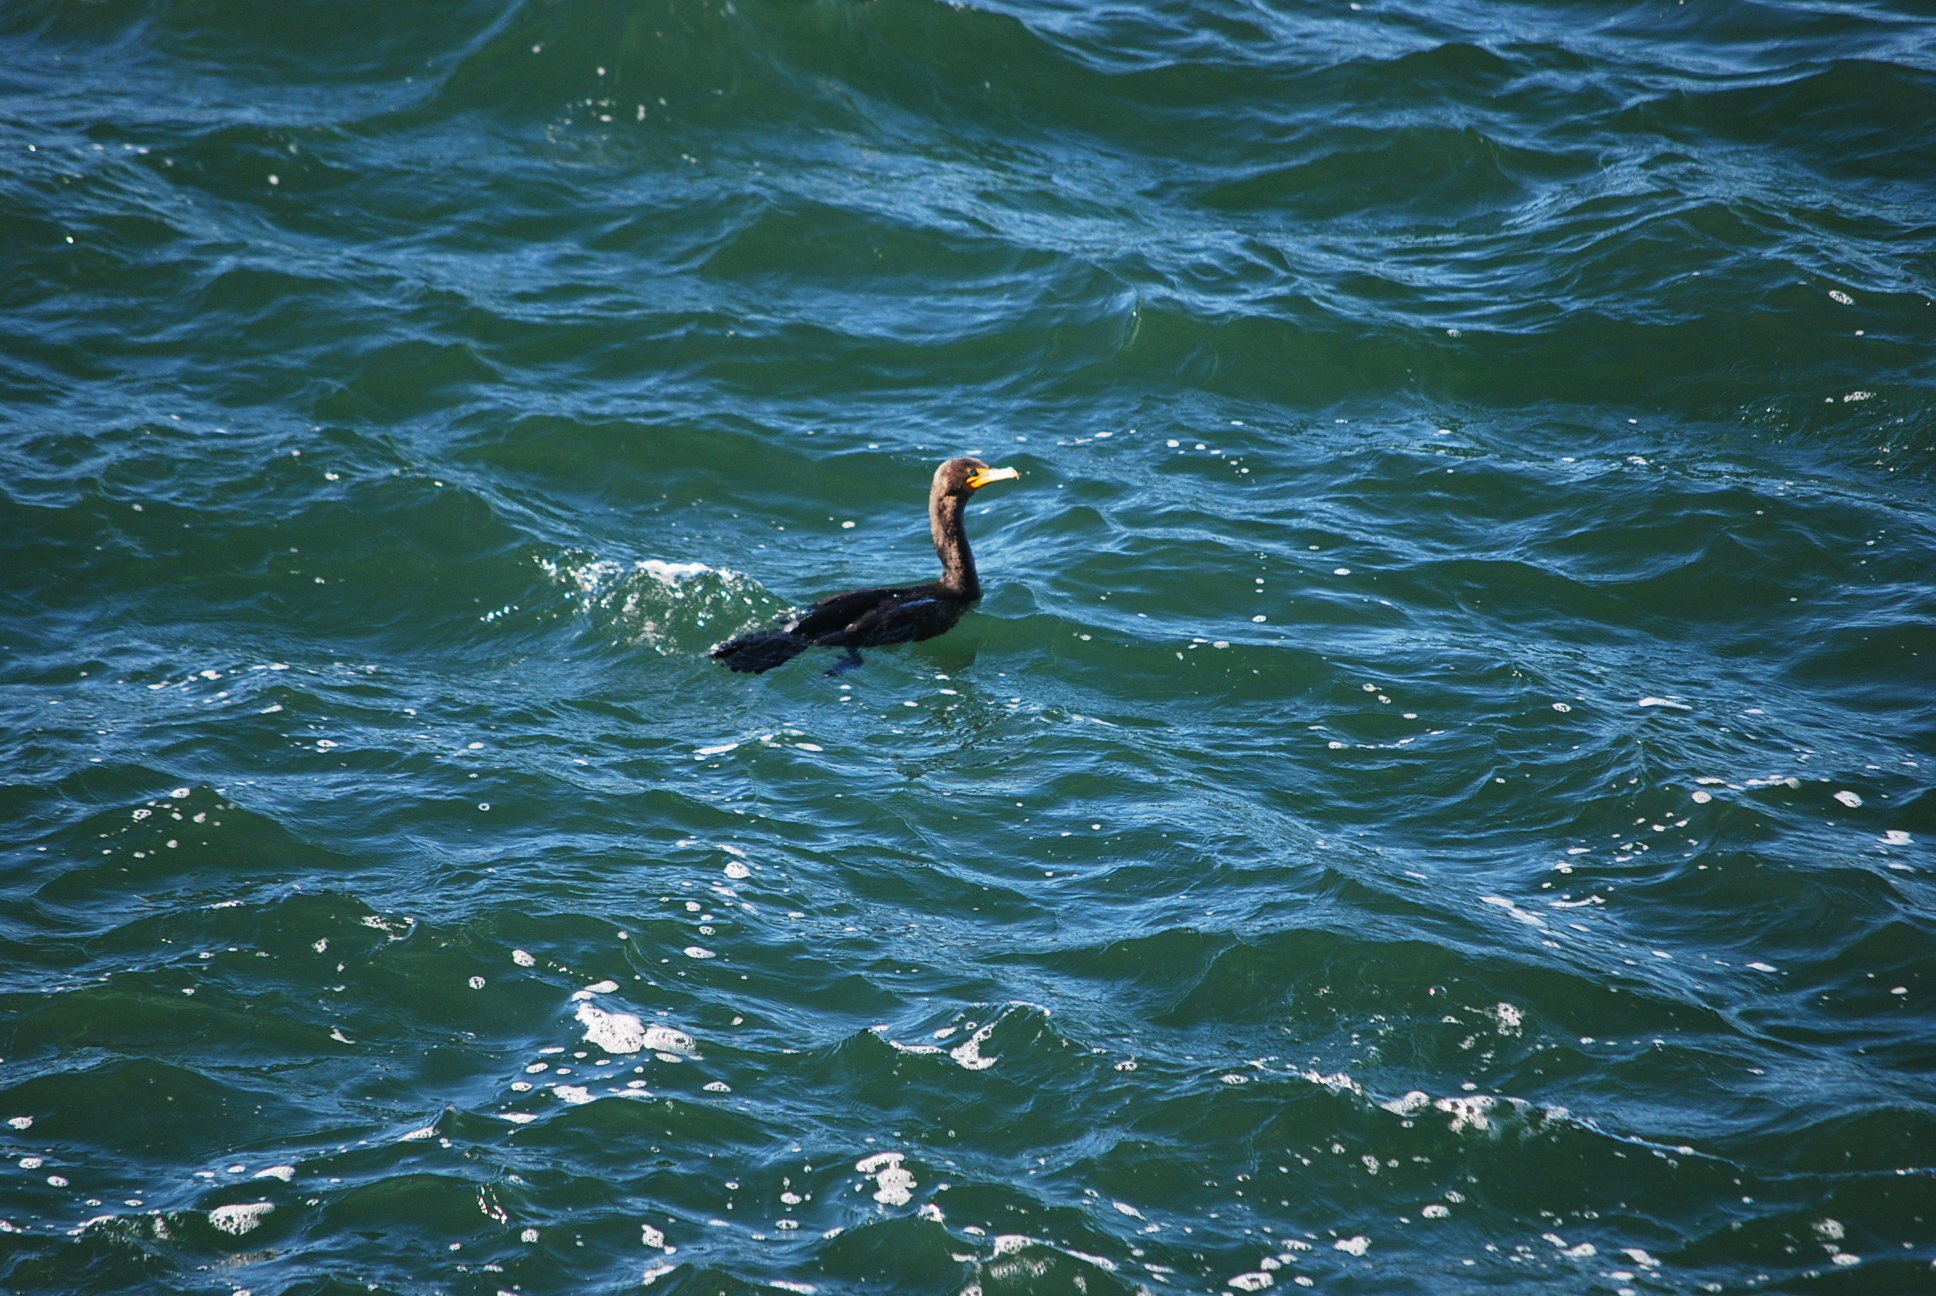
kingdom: Animalia
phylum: Chordata
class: Aves
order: Suliformes
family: Phalacrocoracidae
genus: Phalacrocorax
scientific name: Phalacrocorax auritus
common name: Double-crested cormorant
